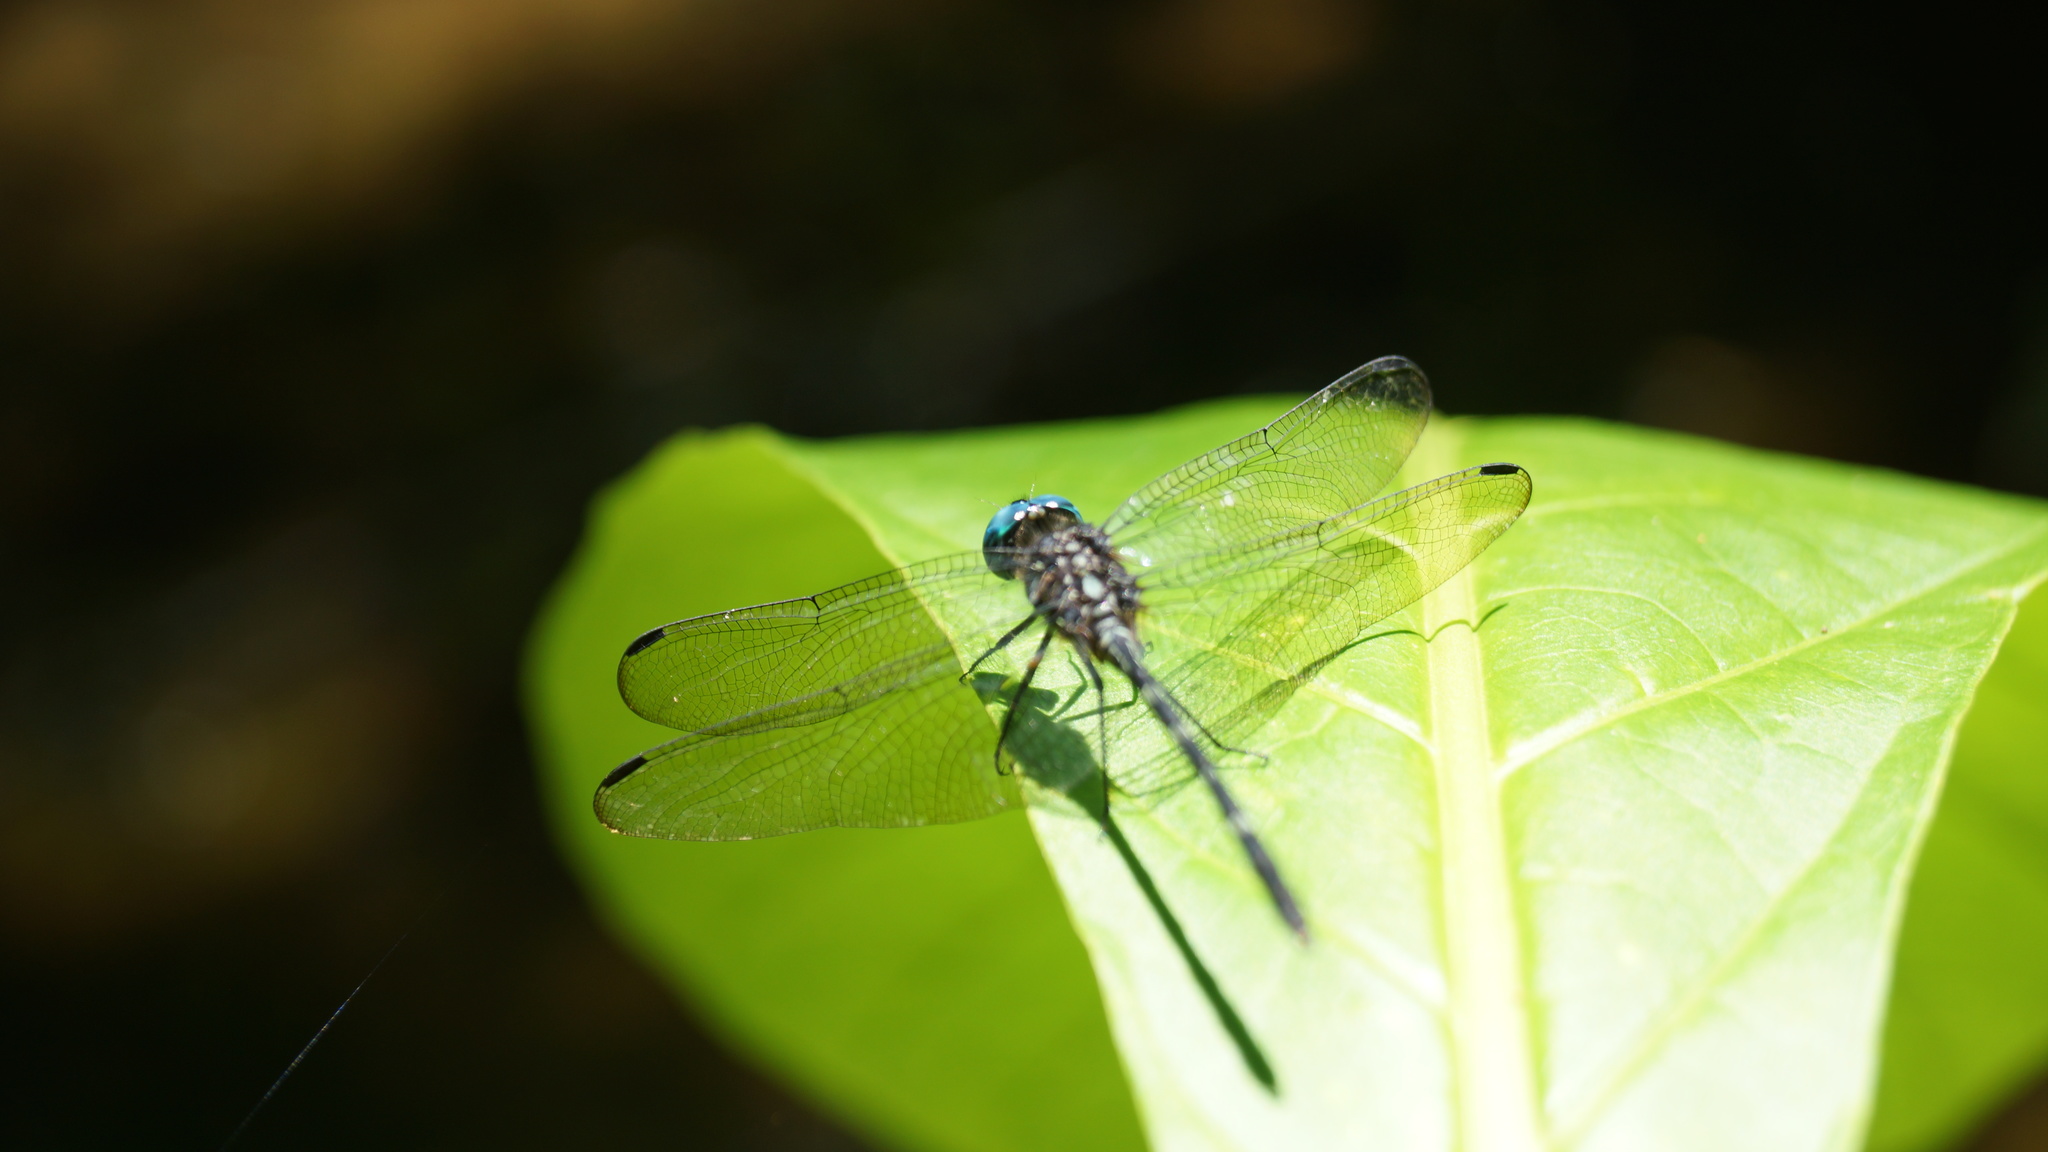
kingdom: Animalia
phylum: Arthropoda
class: Insecta
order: Odonata
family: Libellulidae
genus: Dythemis
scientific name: Dythemis nigra
